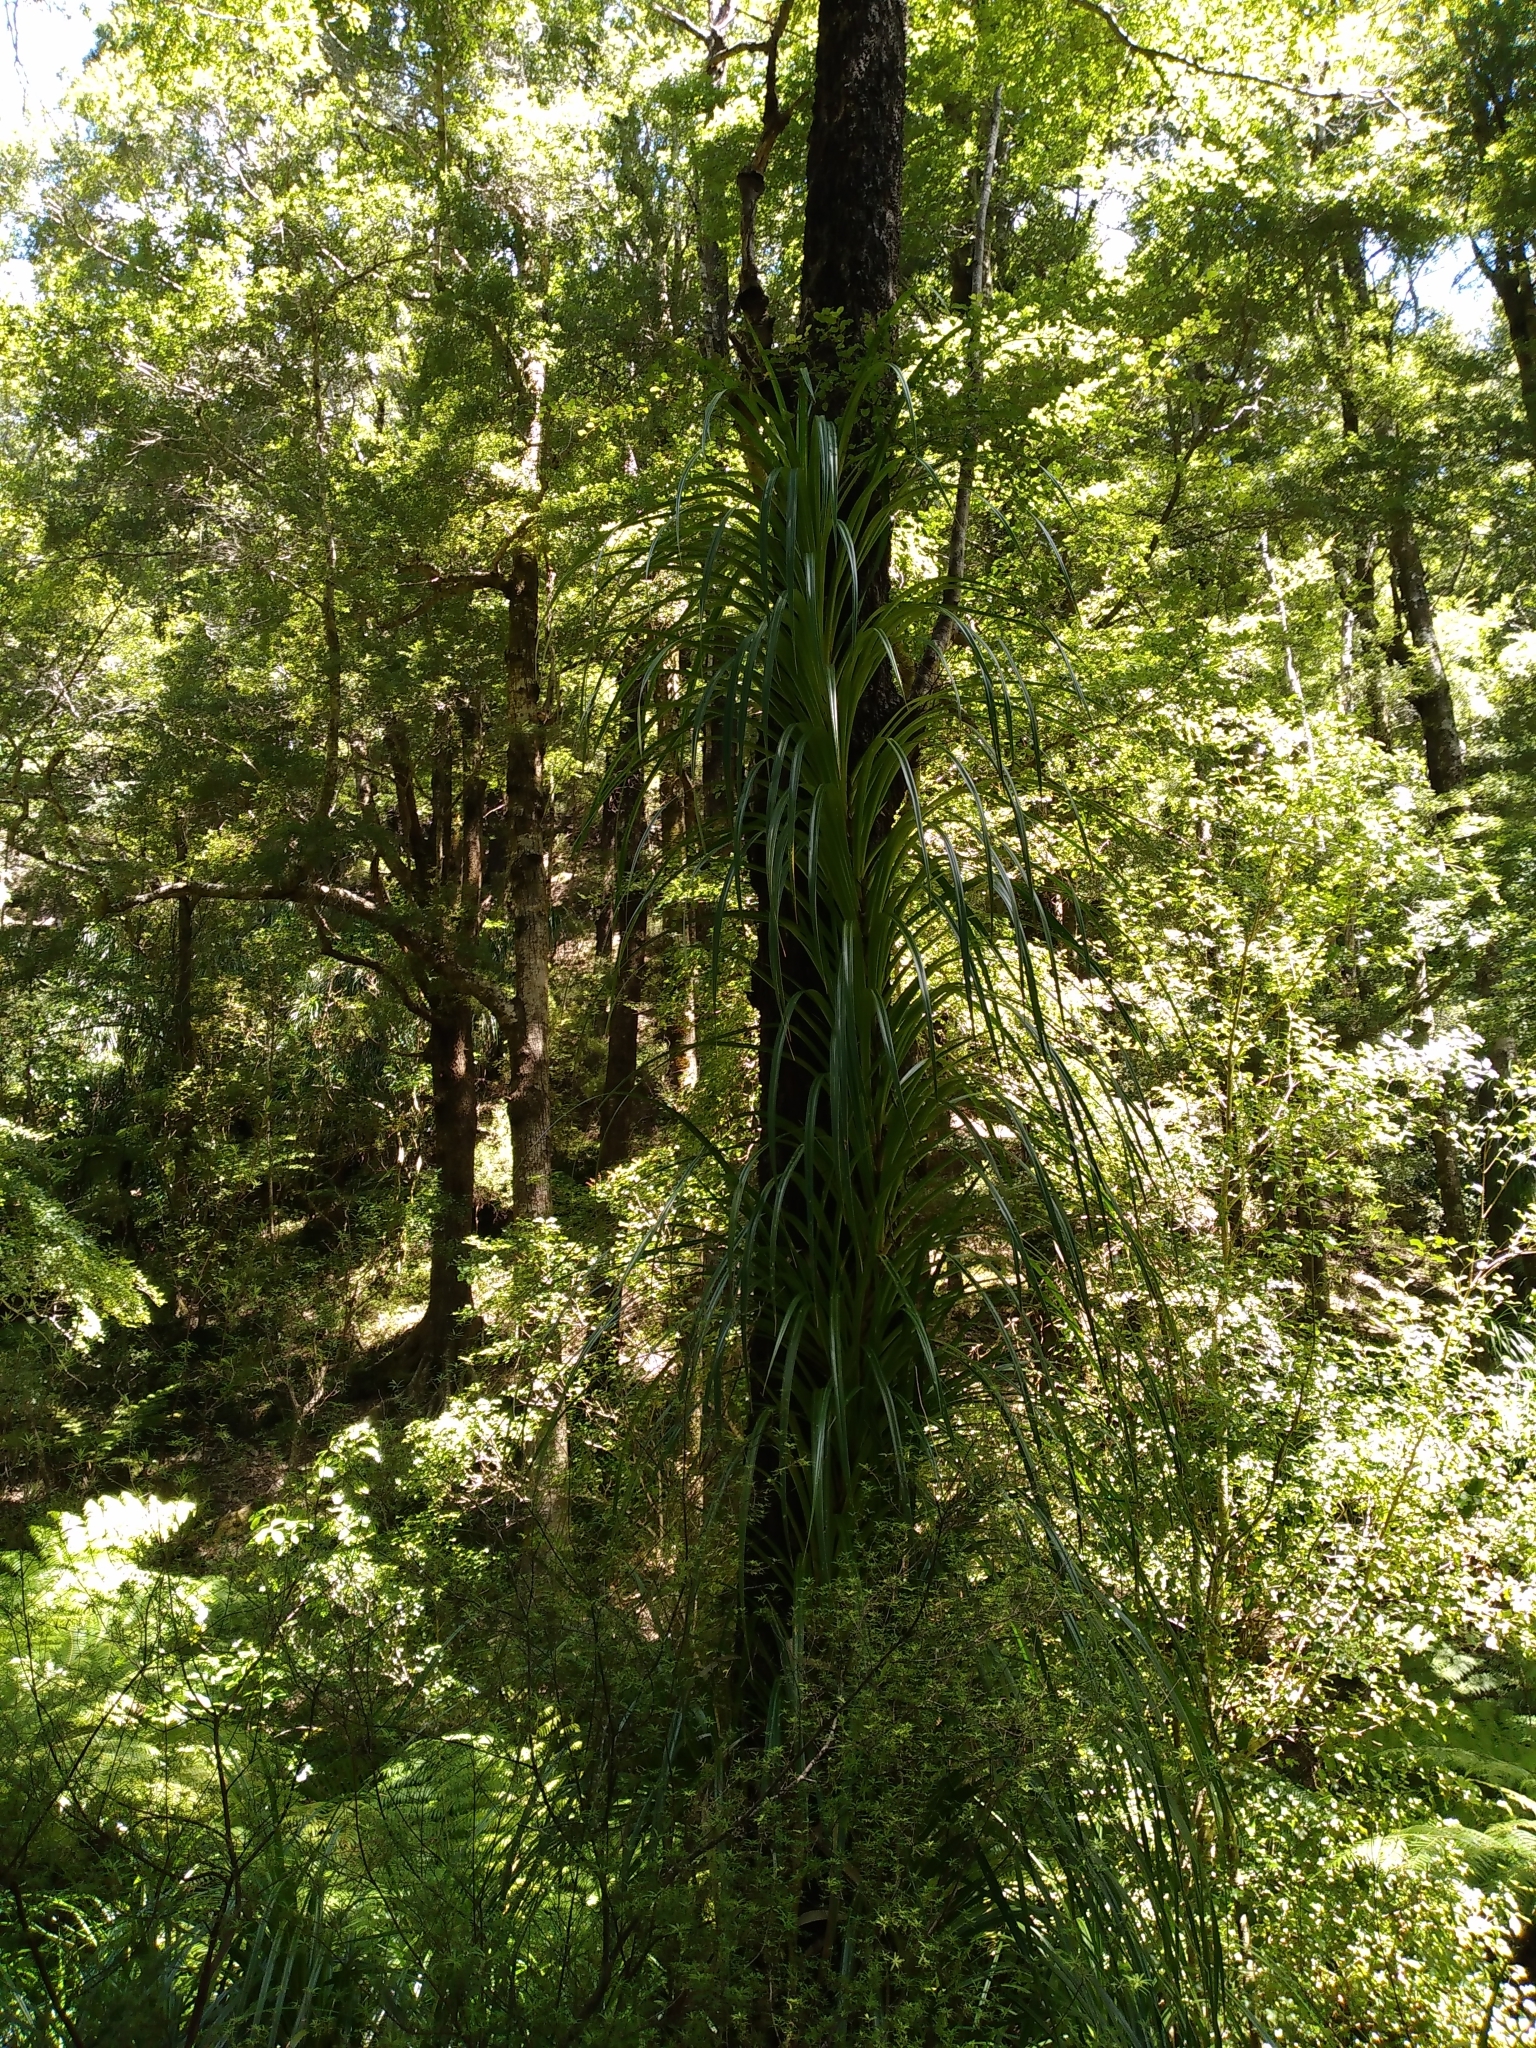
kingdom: Plantae
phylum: Tracheophyta
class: Liliopsida
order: Pandanales
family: Pandanaceae
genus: Freycinetia
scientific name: Freycinetia banksii
